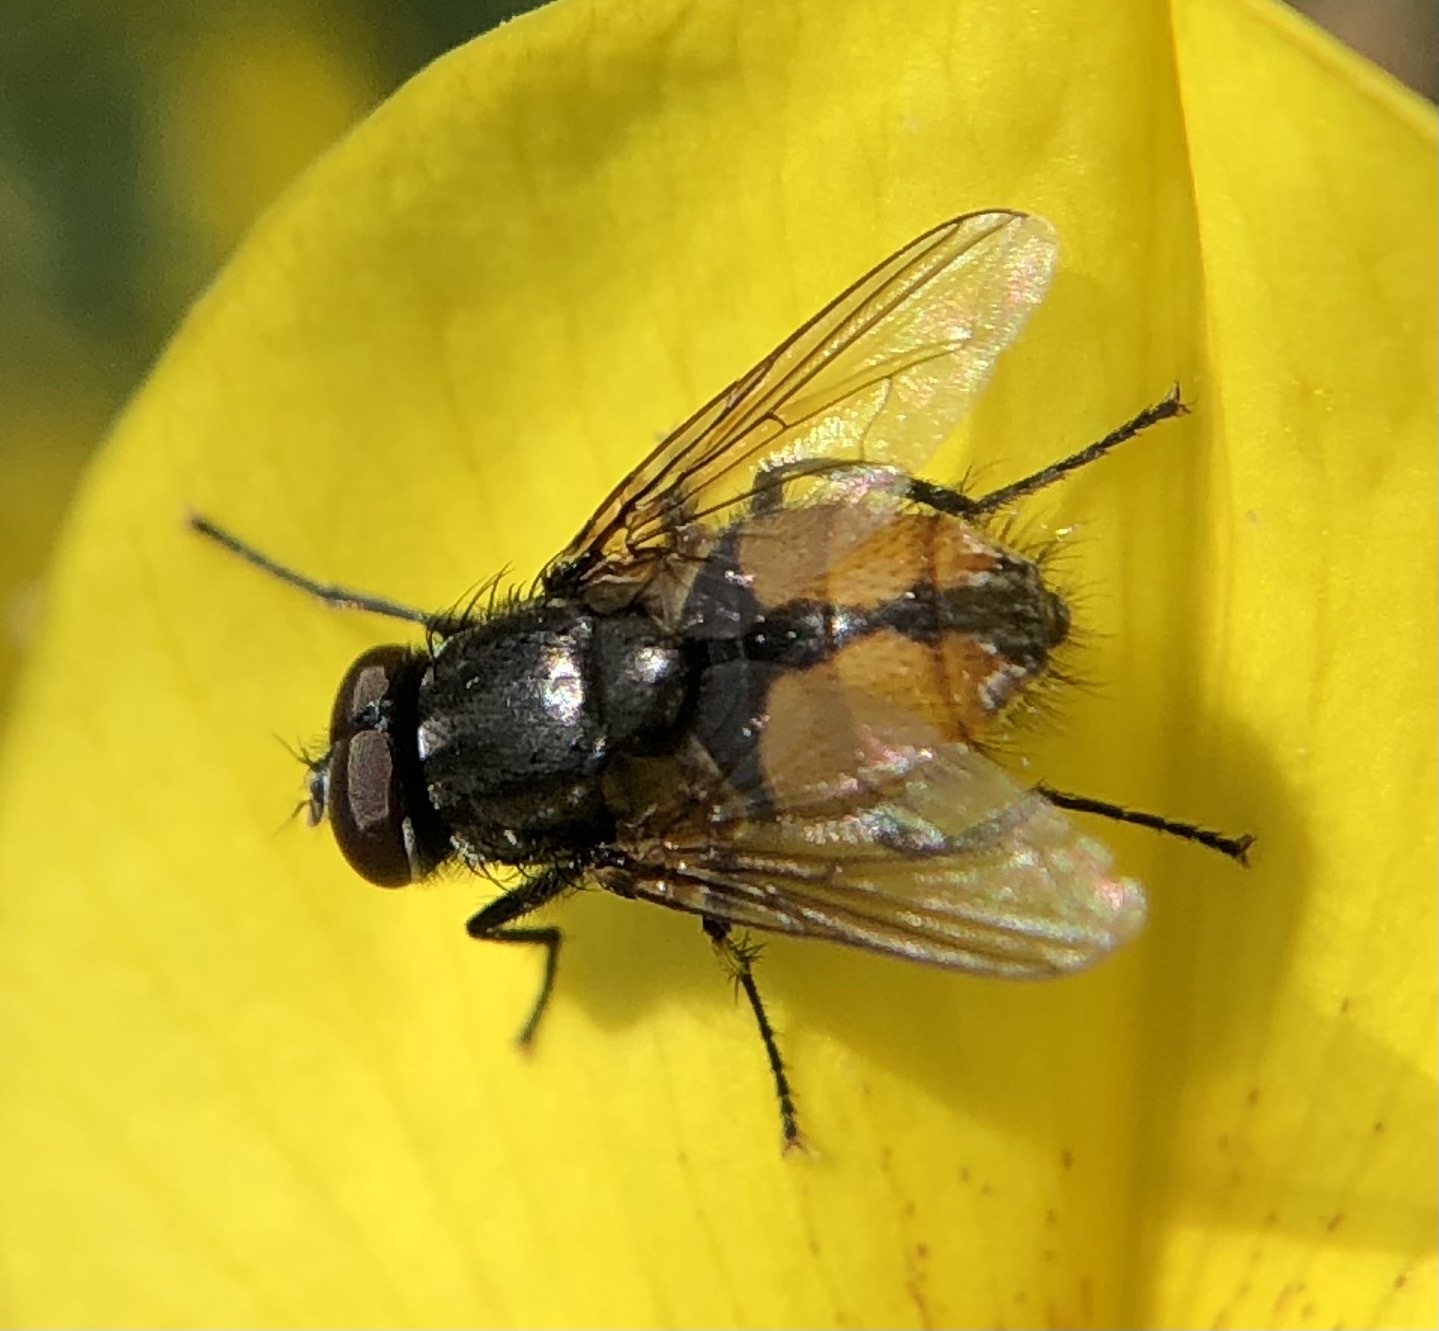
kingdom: Animalia
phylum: Arthropoda
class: Insecta
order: Diptera
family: Muscidae
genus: Musca
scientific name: Musca autumnalis
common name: Face fly
